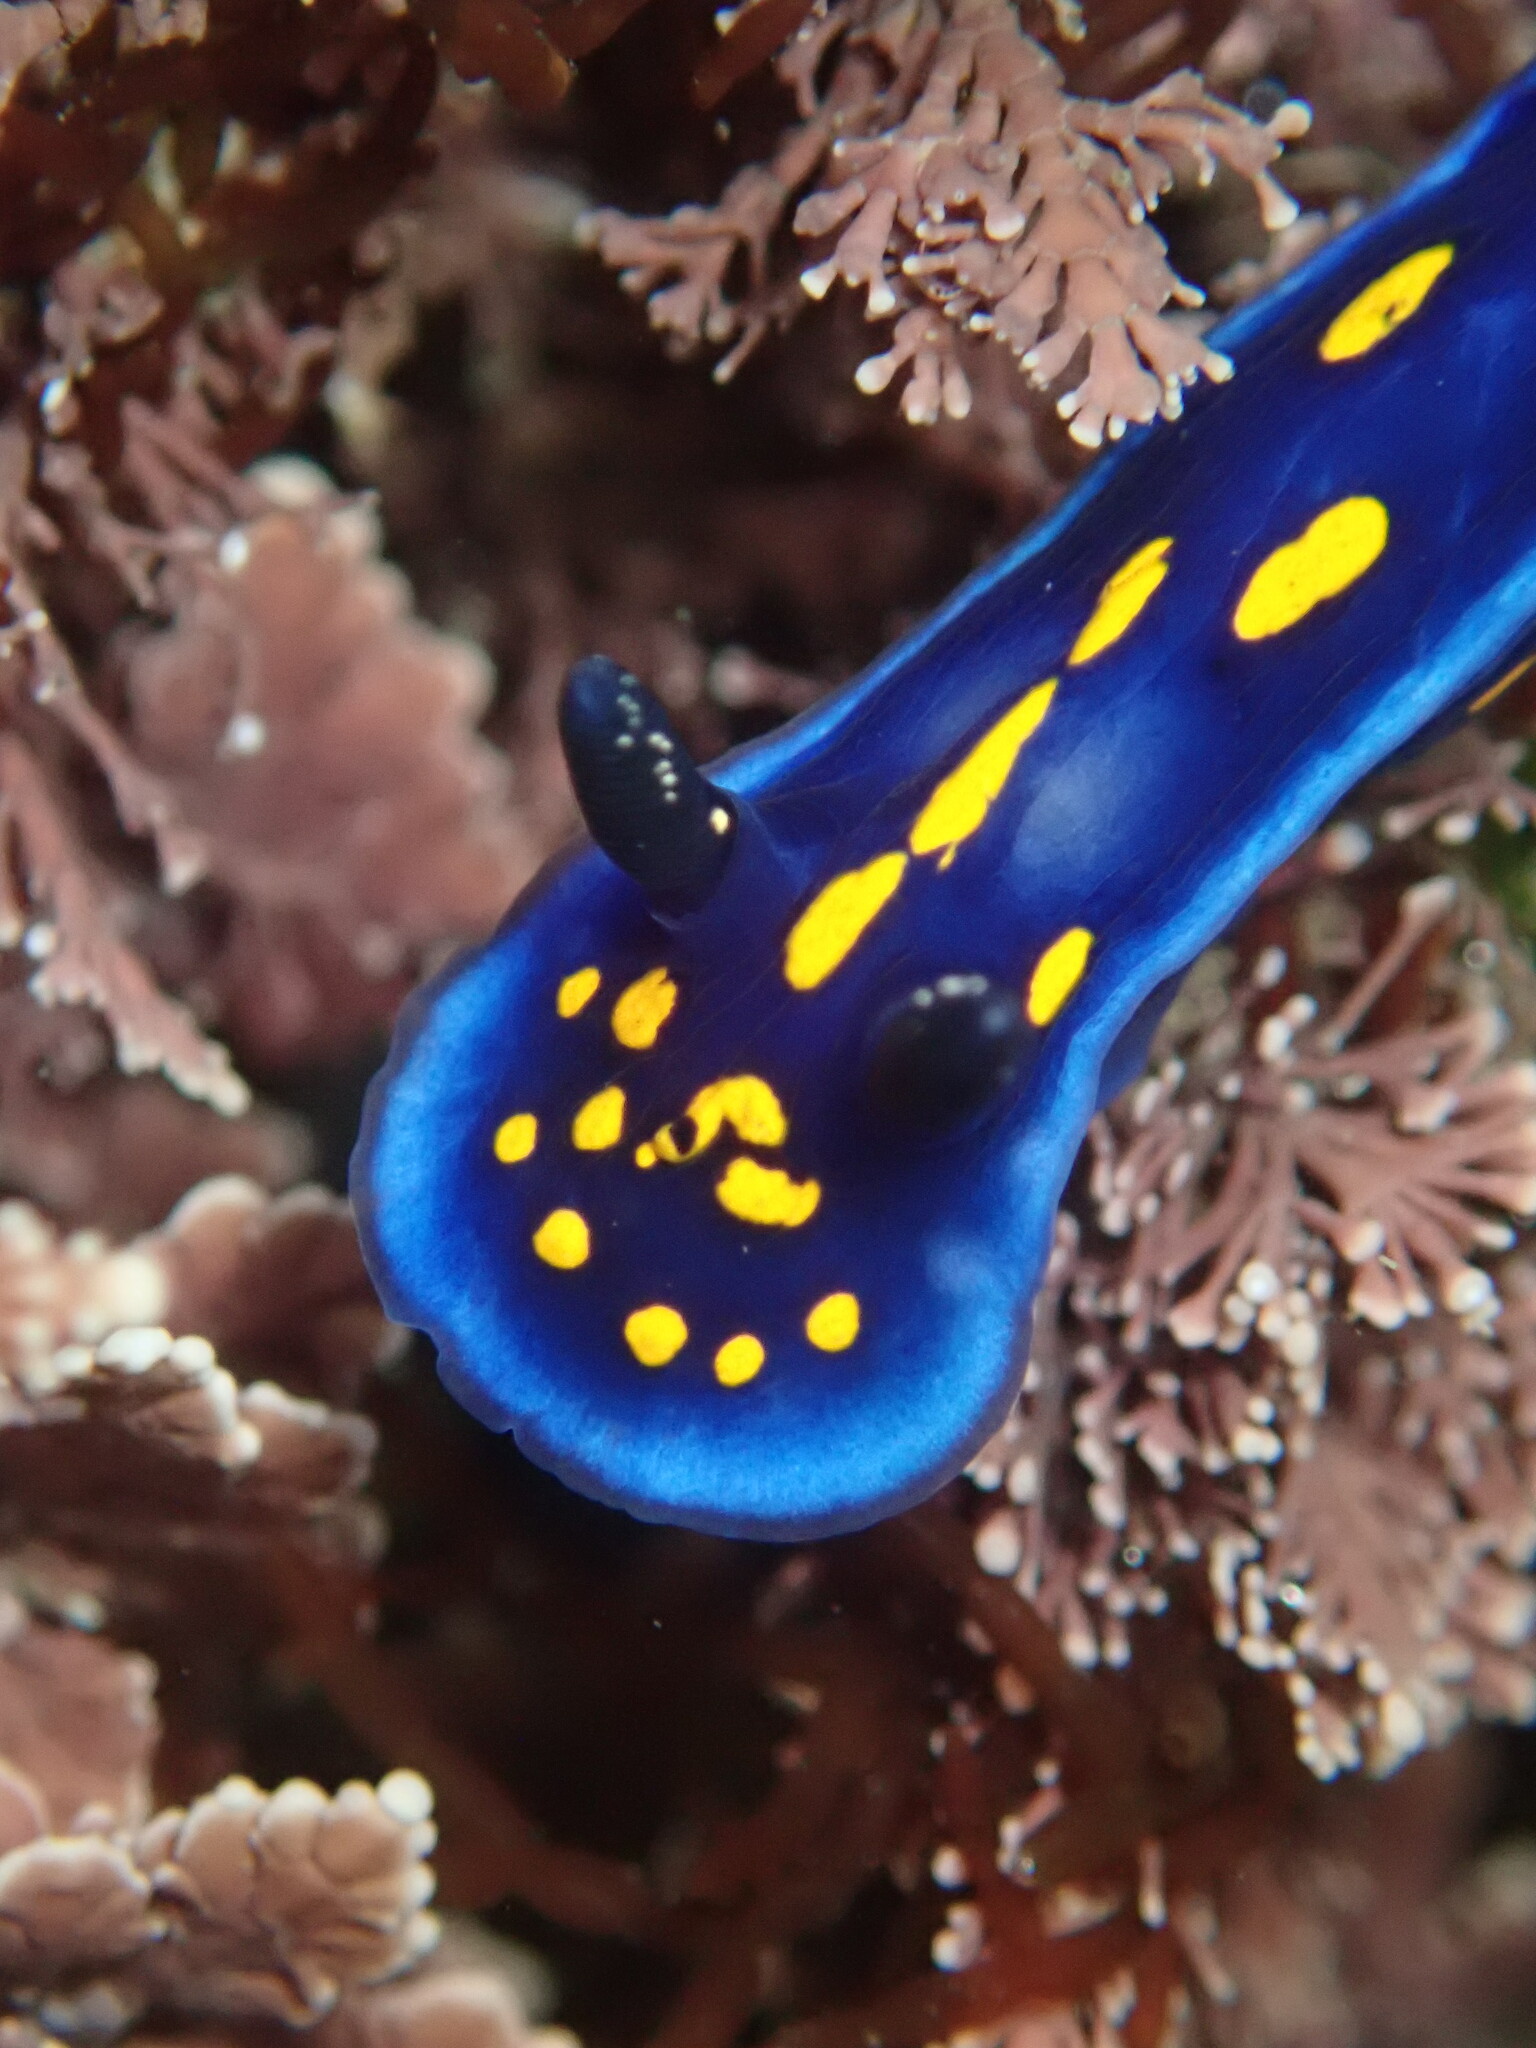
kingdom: Animalia
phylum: Mollusca
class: Gastropoda
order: Nudibranchia
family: Chromodorididae
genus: Felimare
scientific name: Felimare californiensis
